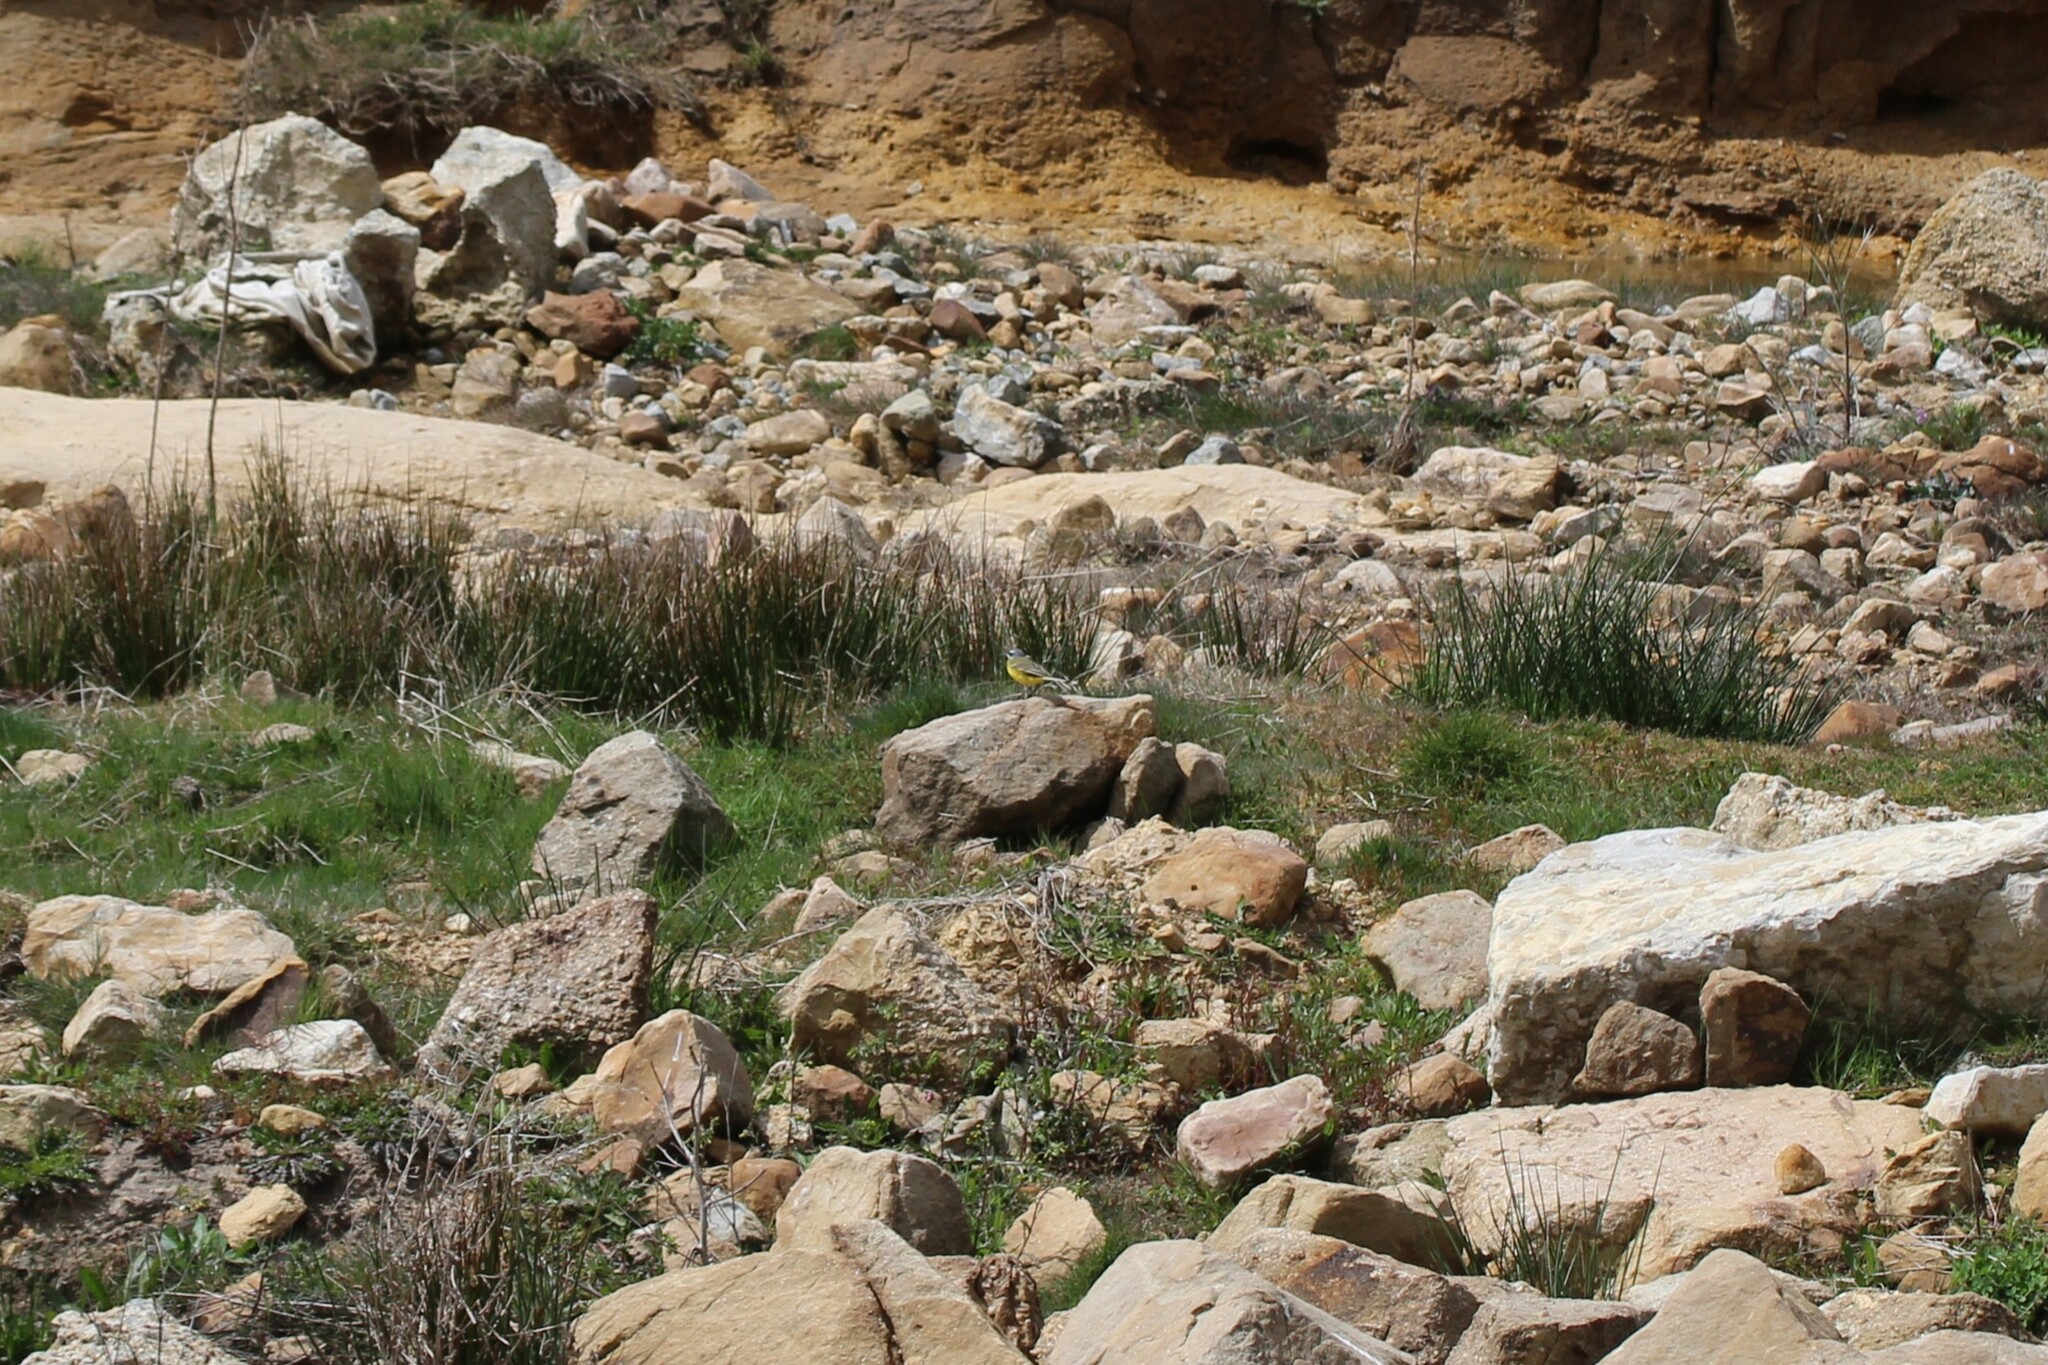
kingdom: Animalia
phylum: Chordata
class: Aves
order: Passeriformes
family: Motacillidae
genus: Motacilla
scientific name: Motacilla flava
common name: Western yellow wagtail
